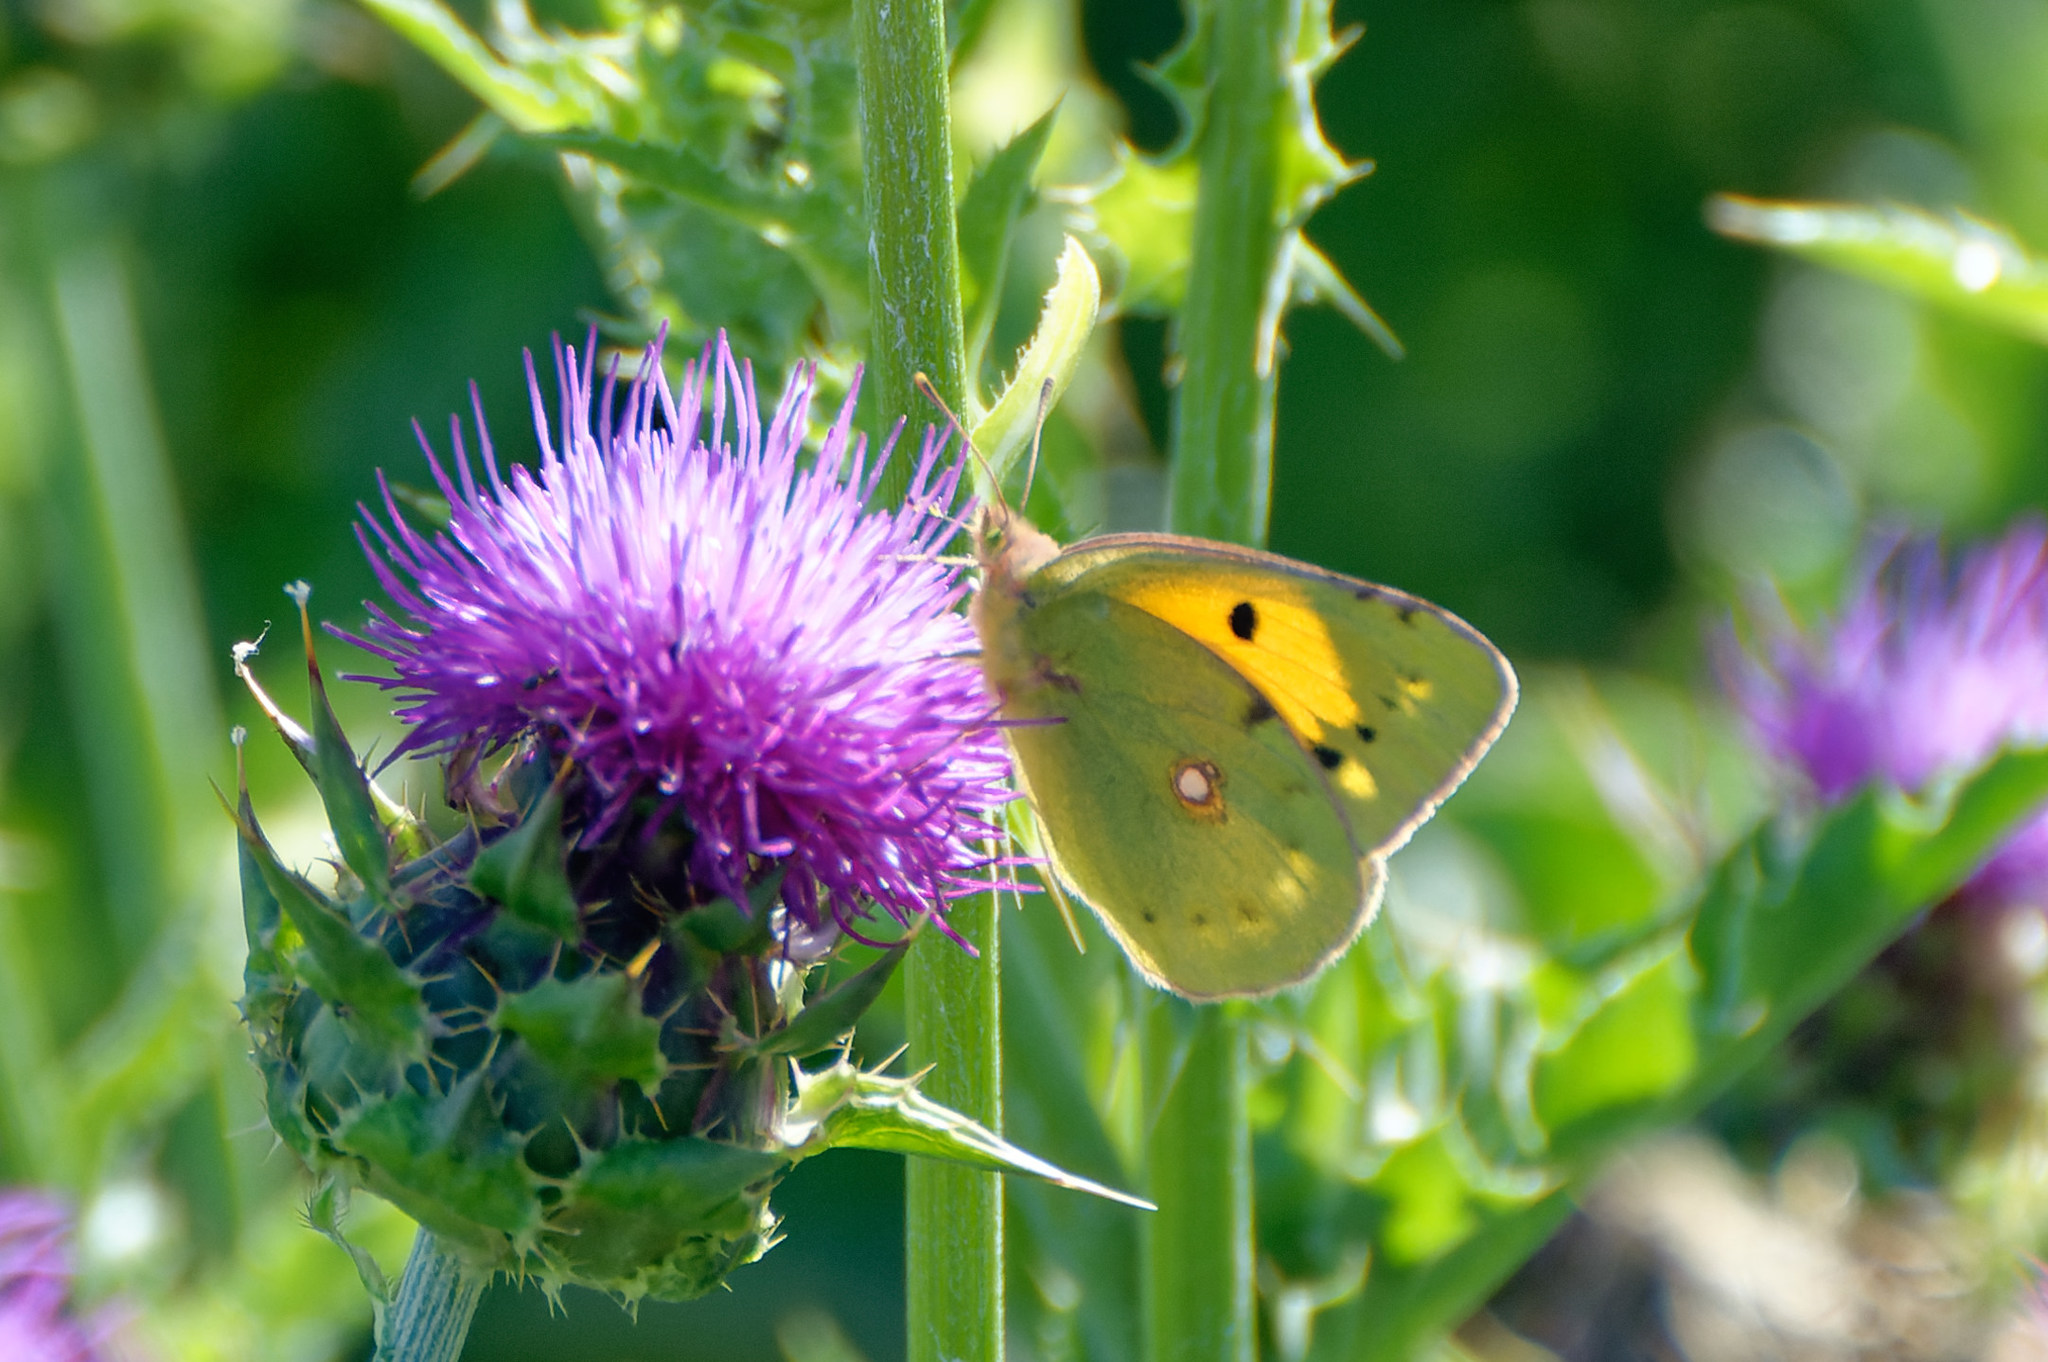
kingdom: Animalia
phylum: Arthropoda
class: Insecta
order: Lepidoptera
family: Pieridae
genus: Colias
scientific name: Colias croceus
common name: Clouded yellow
